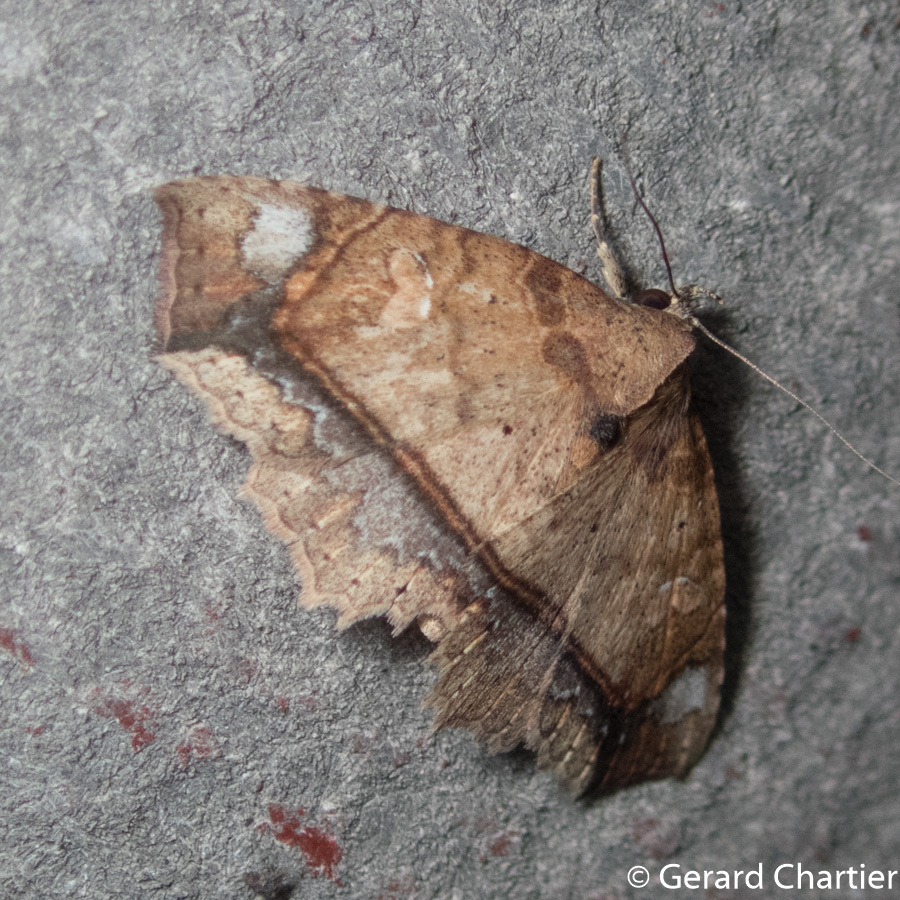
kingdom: Animalia
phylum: Arthropoda
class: Insecta
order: Lepidoptera
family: Erebidae
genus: Tamba
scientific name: Tamba rufipennis
